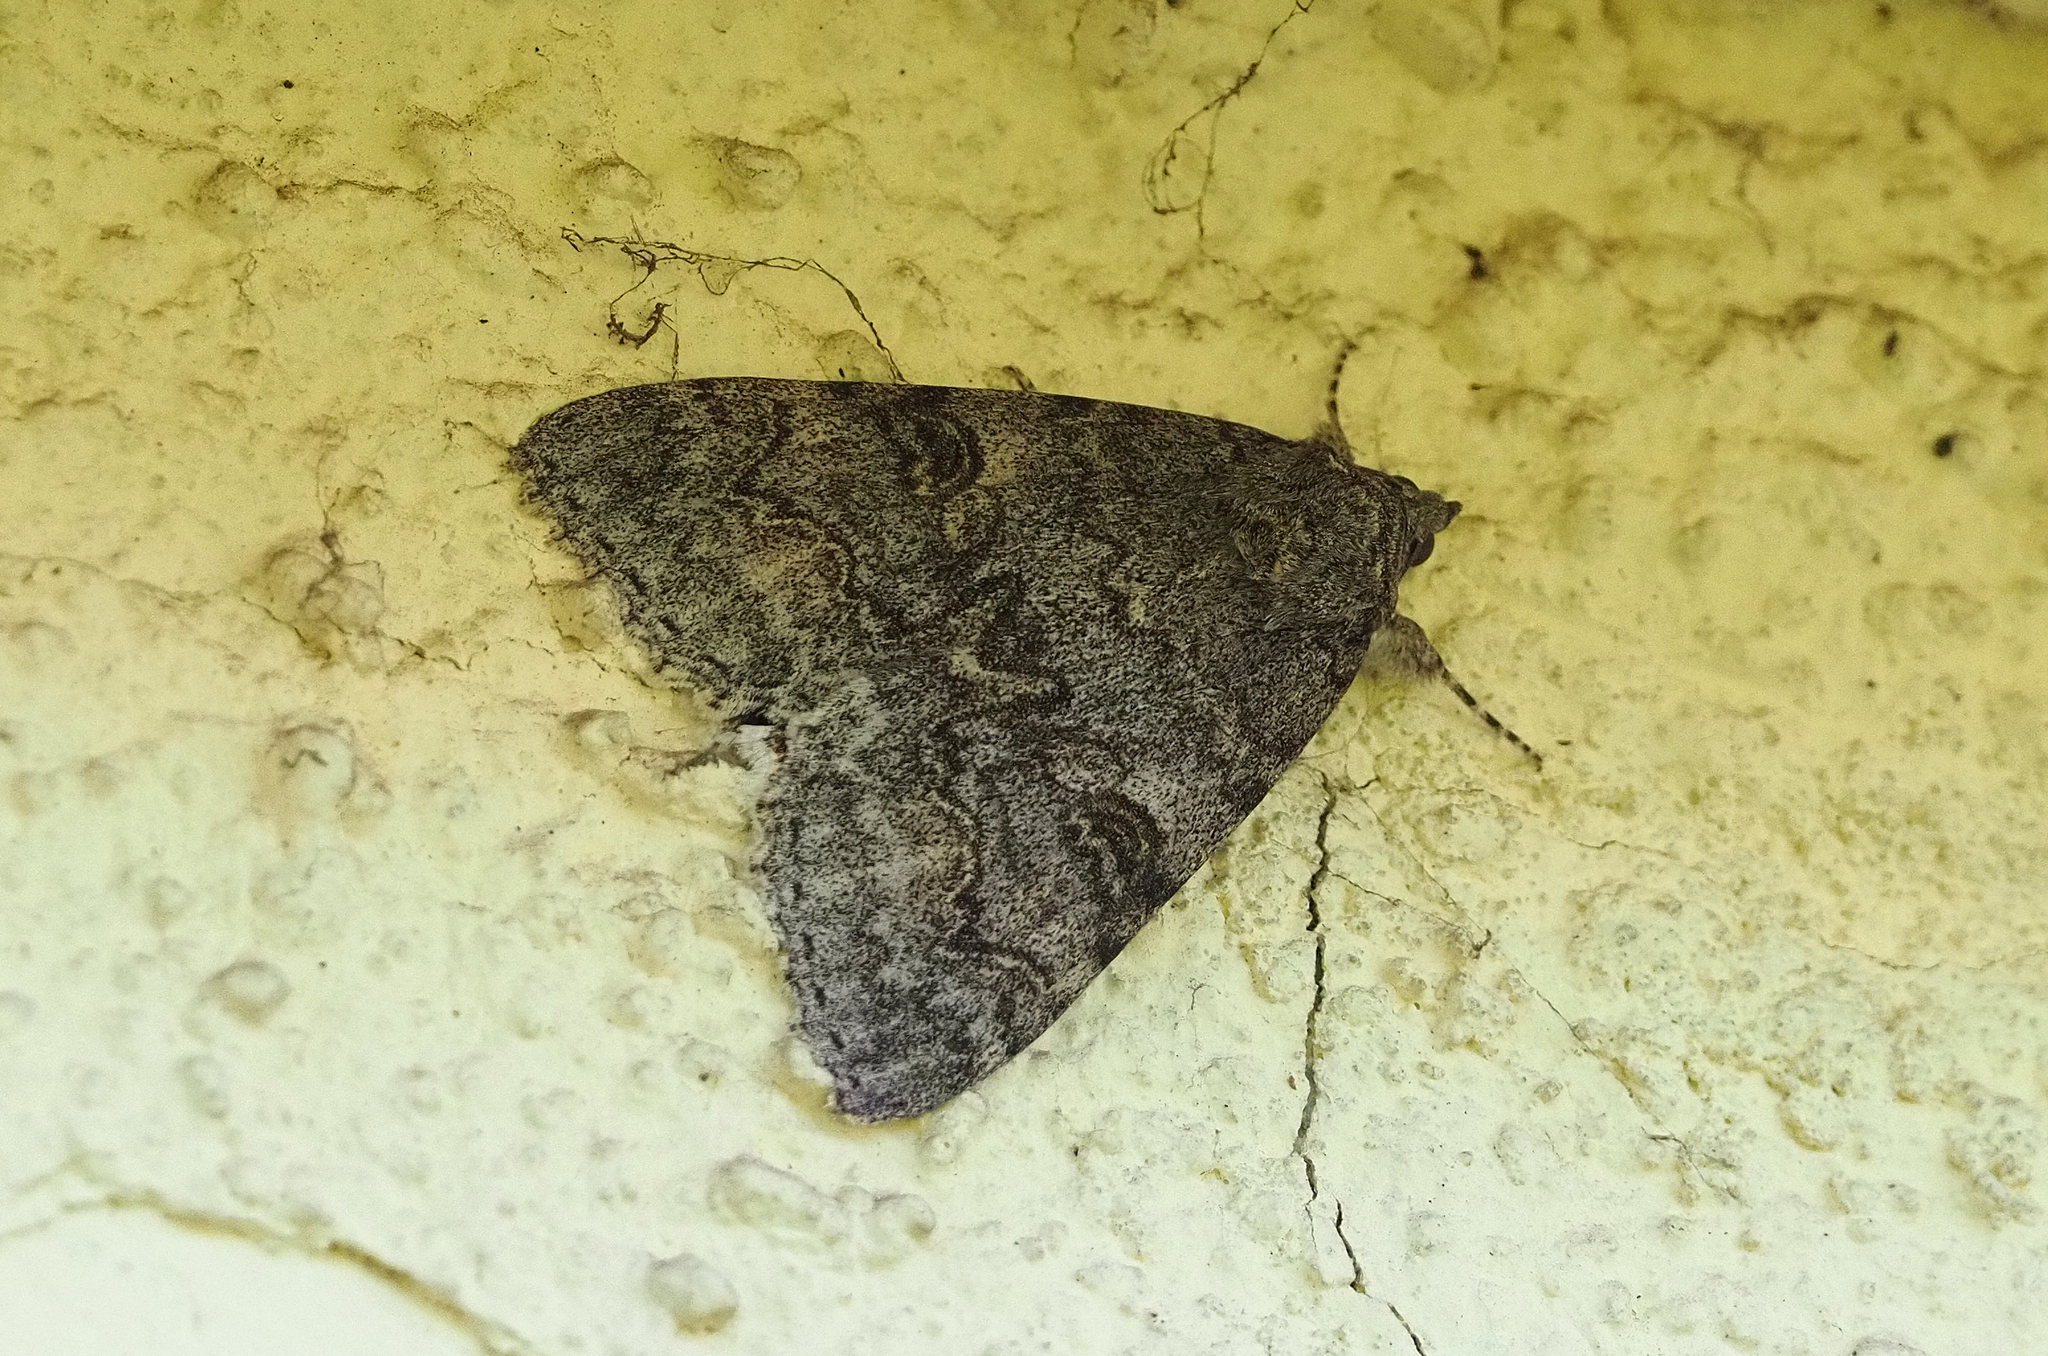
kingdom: Animalia
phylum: Arthropoda
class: Insecta
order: Lepidoptera
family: Erebidae
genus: Catocala
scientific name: Catocala nupta
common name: Red underwing
